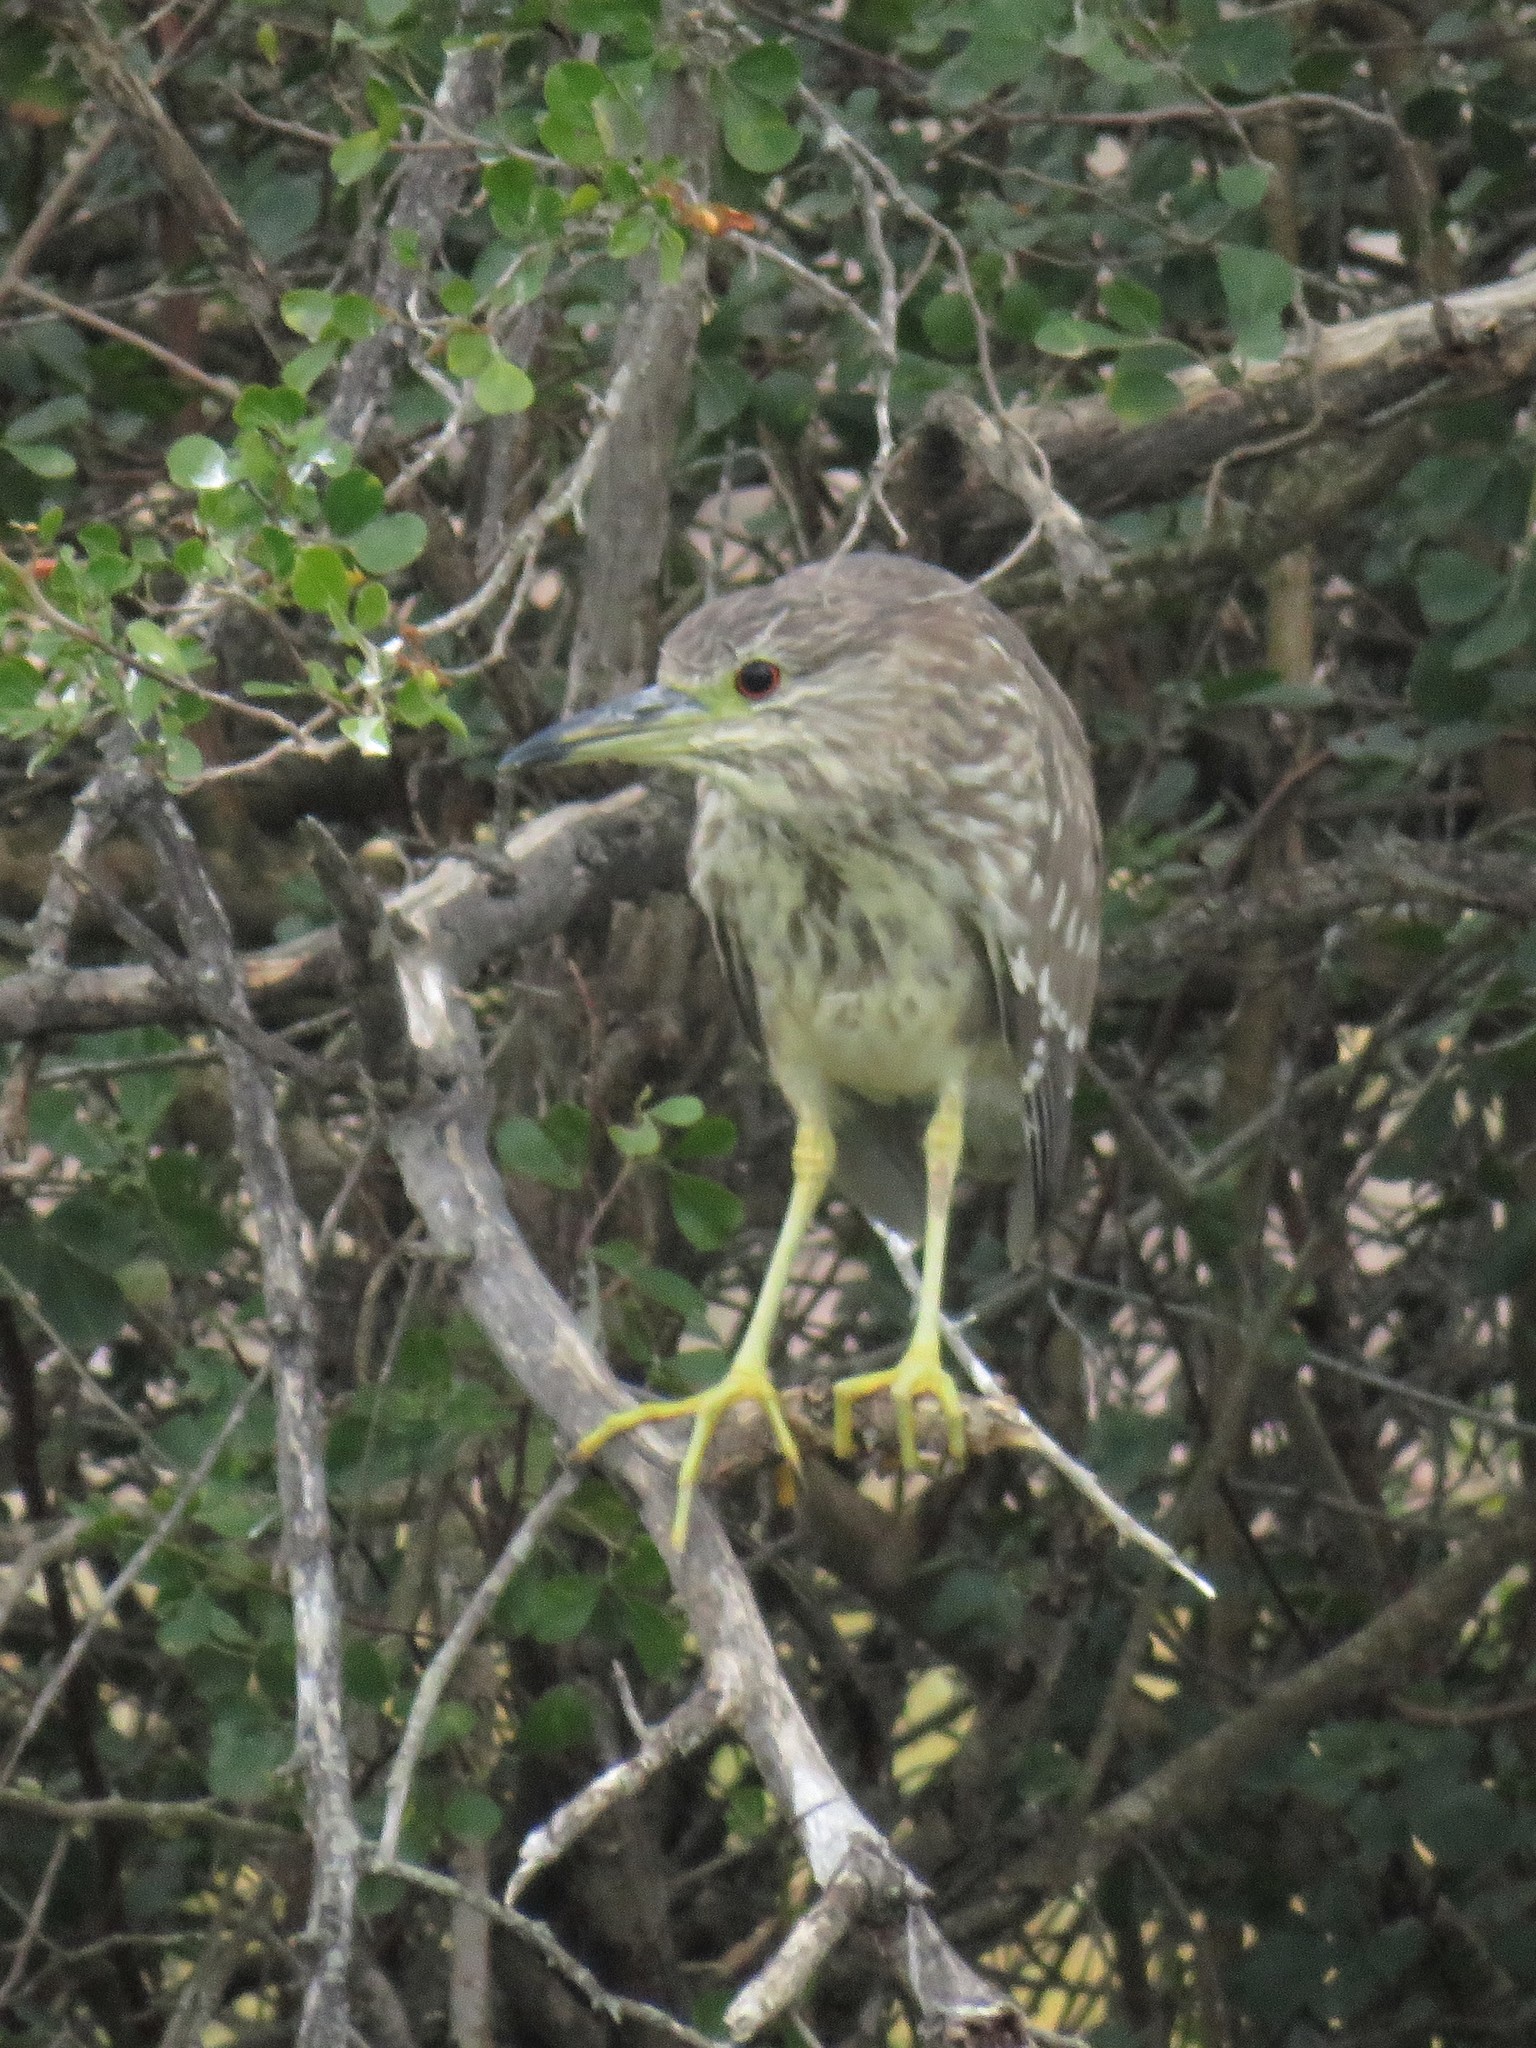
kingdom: Animalia
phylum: Chordata
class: Aves
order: Pelecaniformes
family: Ardeidae
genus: Nycticorax
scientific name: Nycticorax nycticorax
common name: Black-crowned night heron
